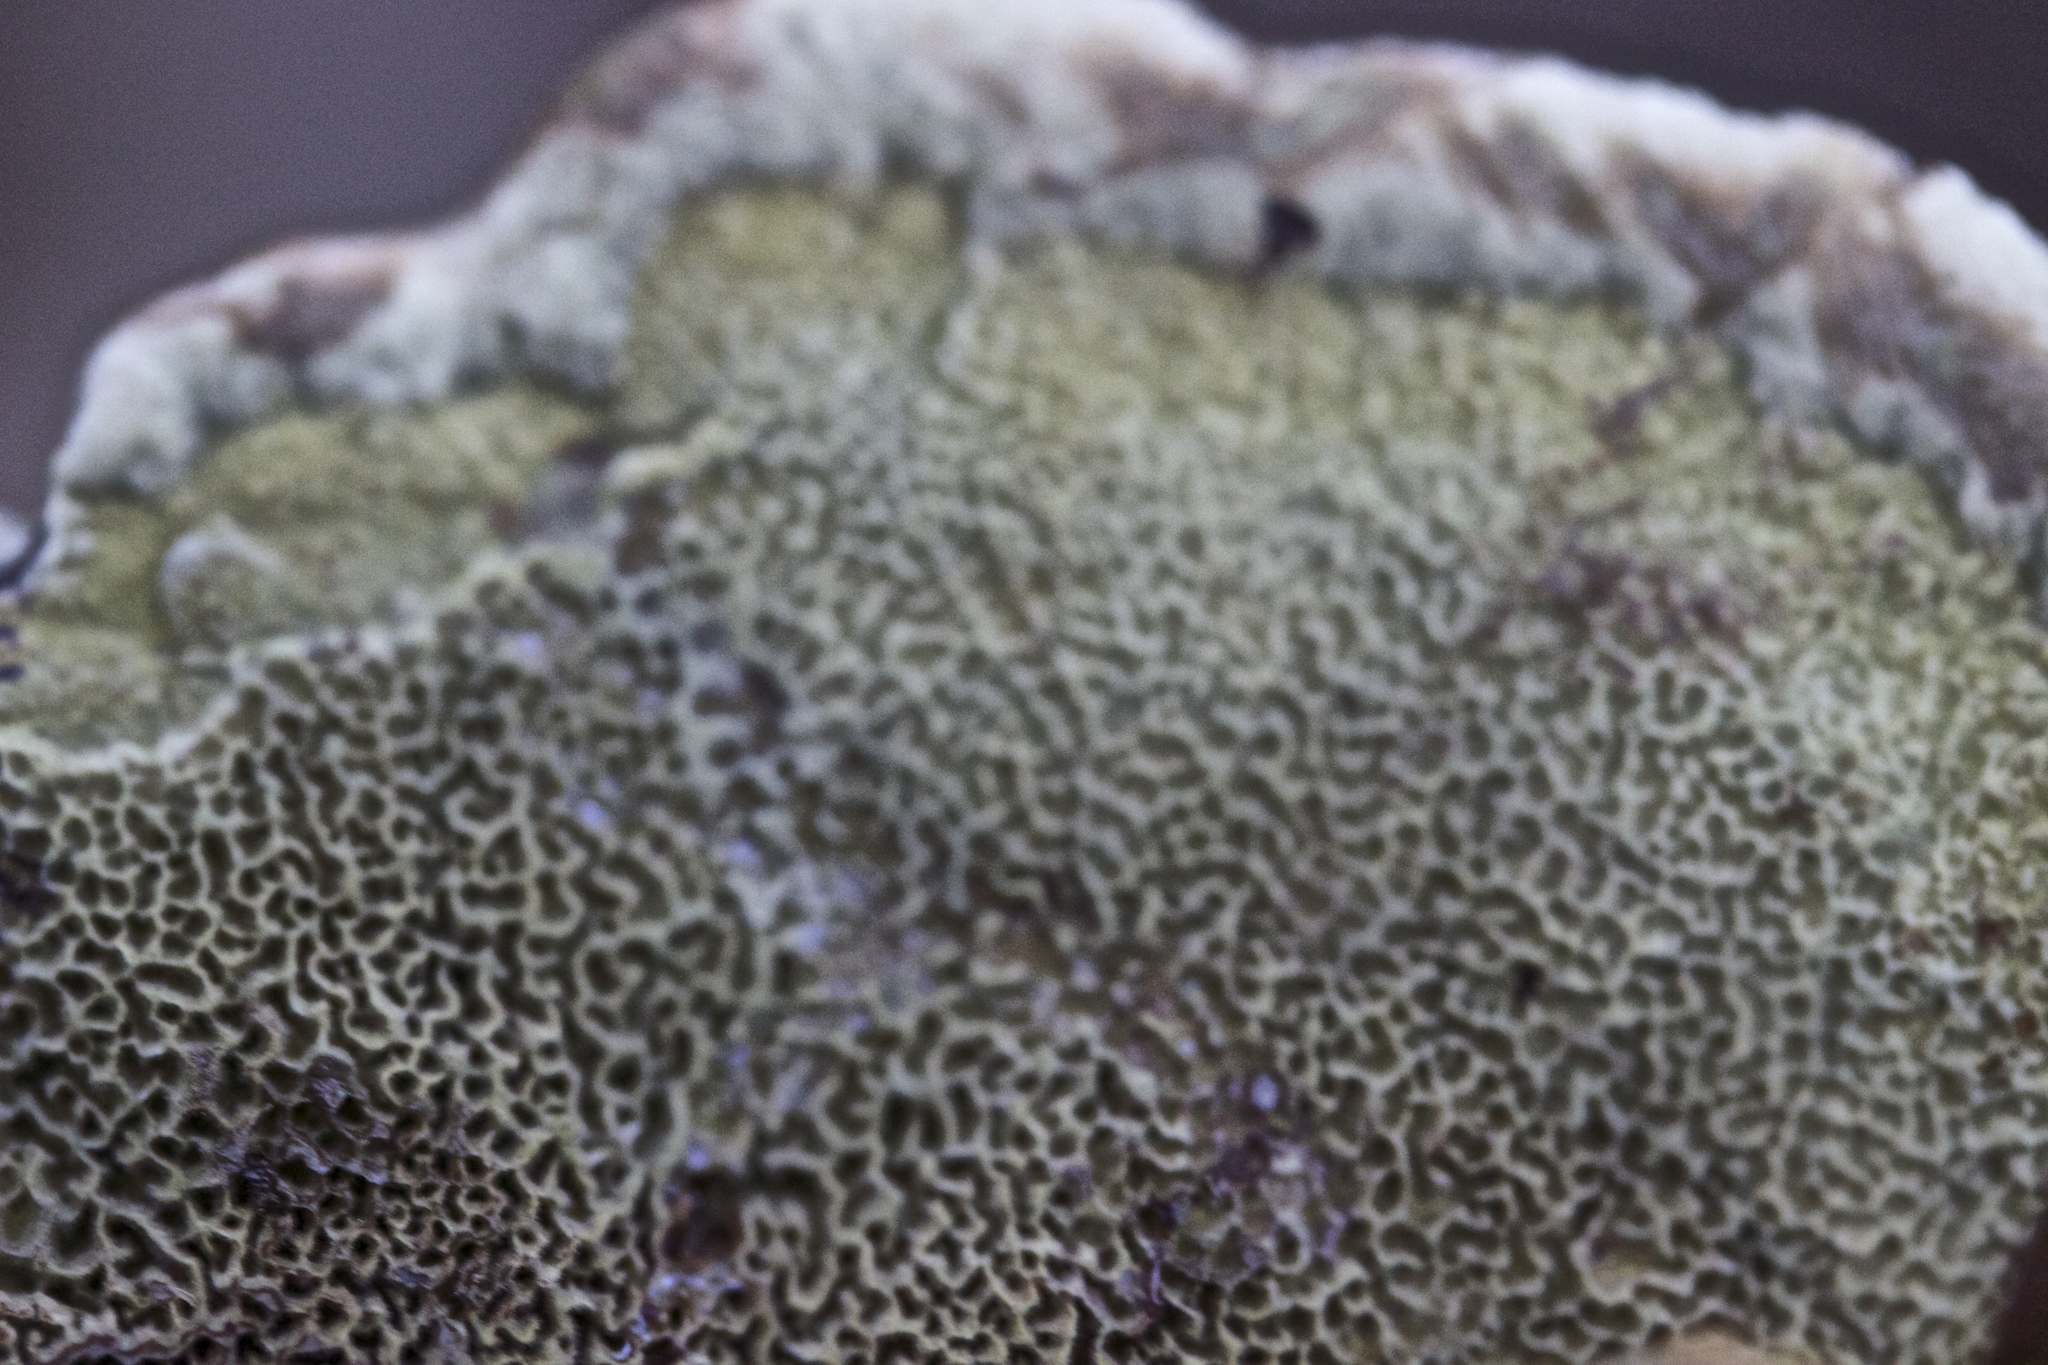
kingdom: Fungi
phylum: Basidiomycota
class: Agaricomycetes
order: Polyporales
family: Laetiporaceae
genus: Phaeolus
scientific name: Phaeolus schweinitzii
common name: Dyer's mazegill
